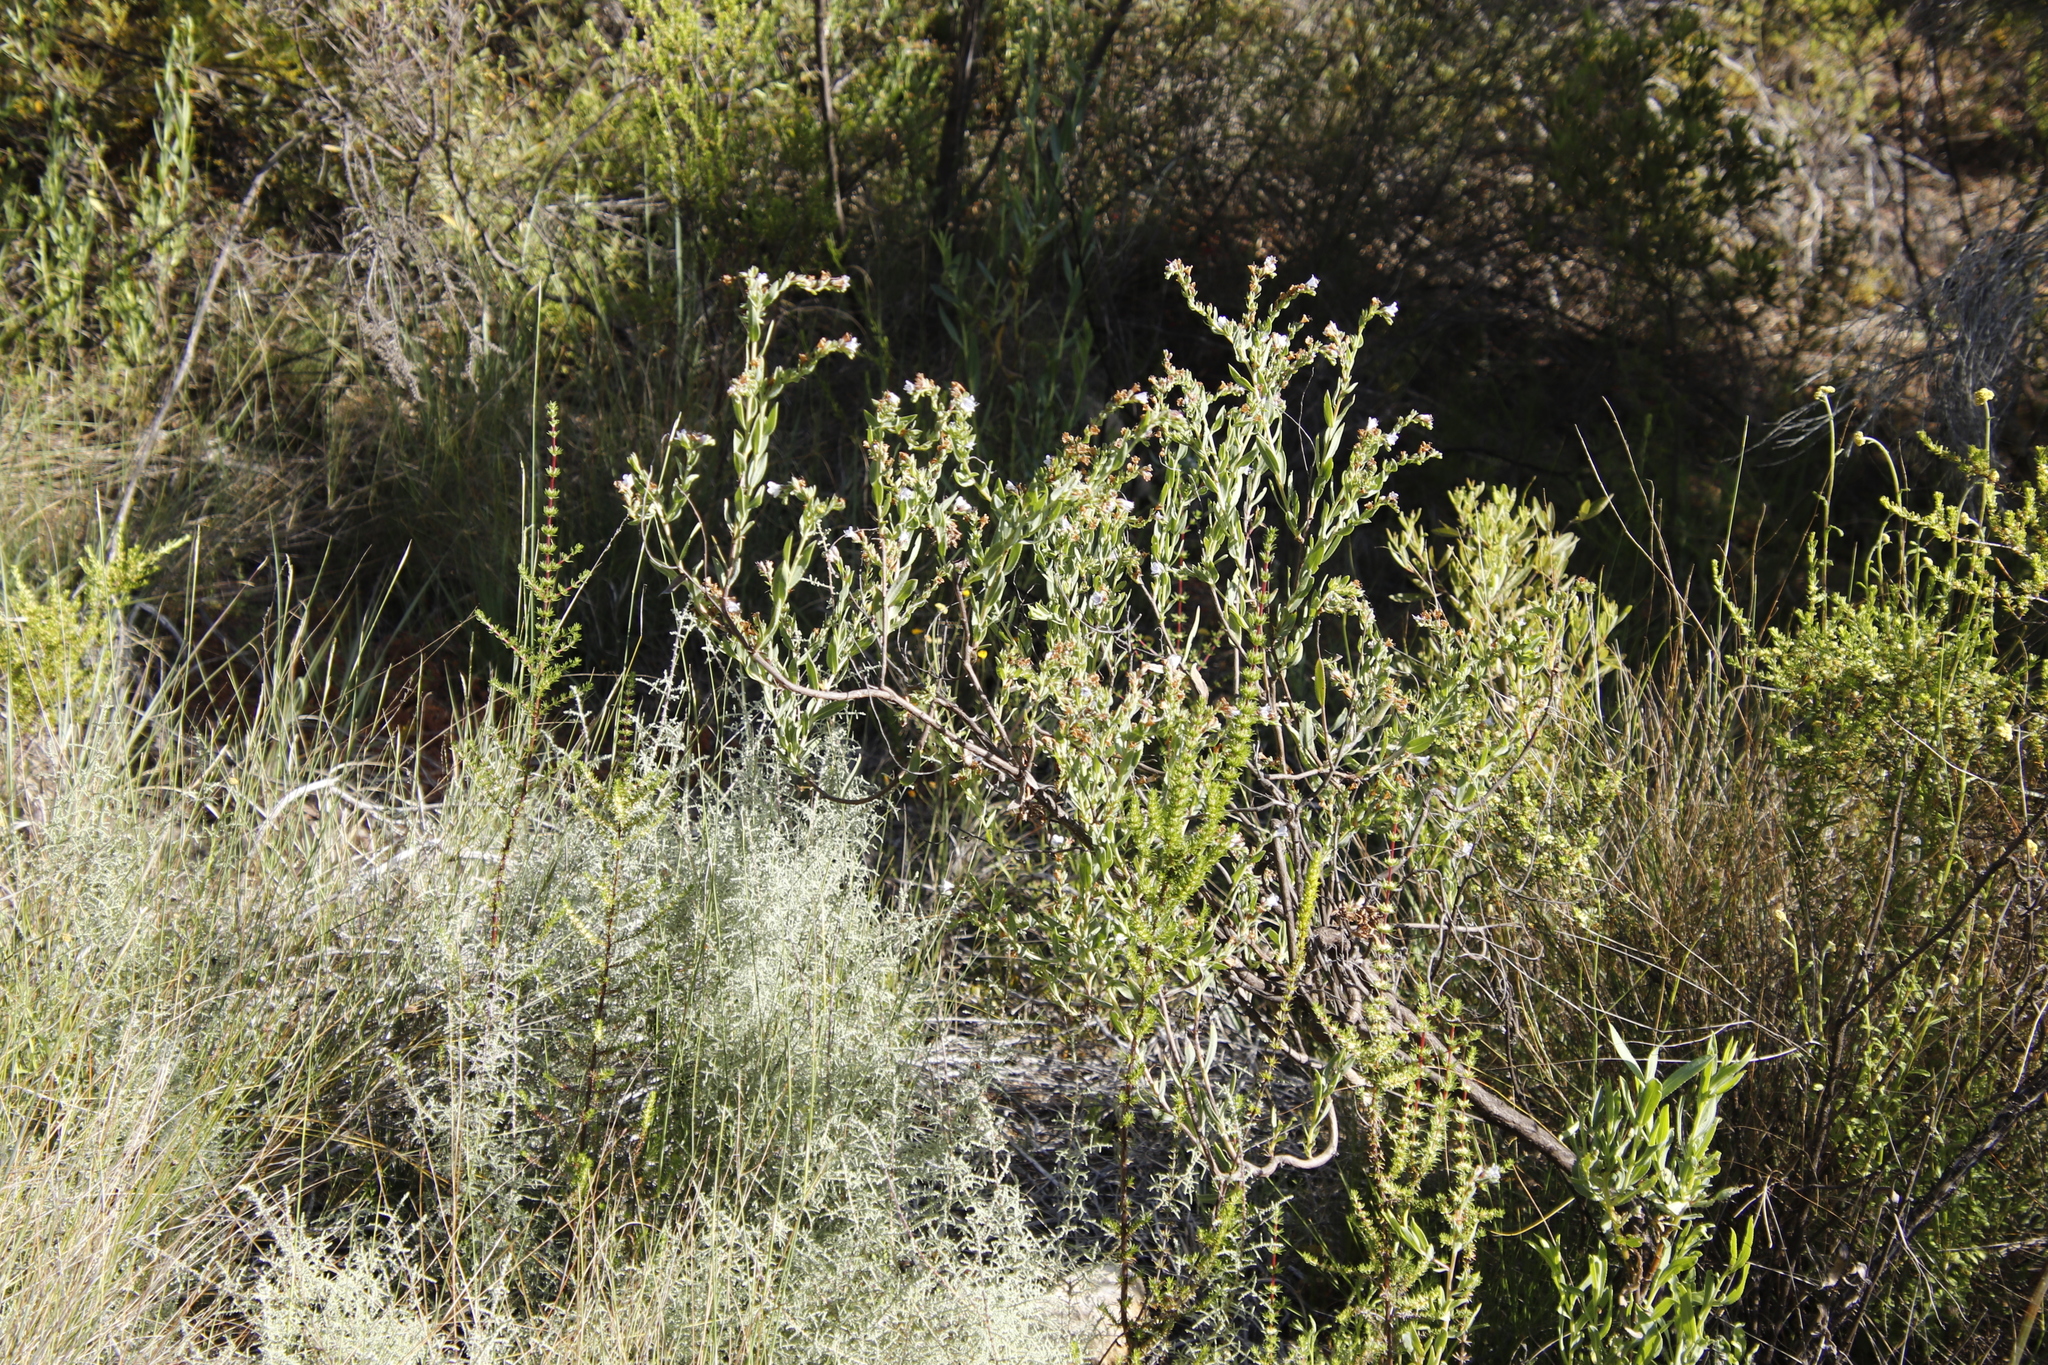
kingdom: Plantae
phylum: Tracheophyta
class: Magnoliopsida
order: Boraginales
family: Boraginaceae
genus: Lobostemon
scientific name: Lobostemon glaucophyllus
